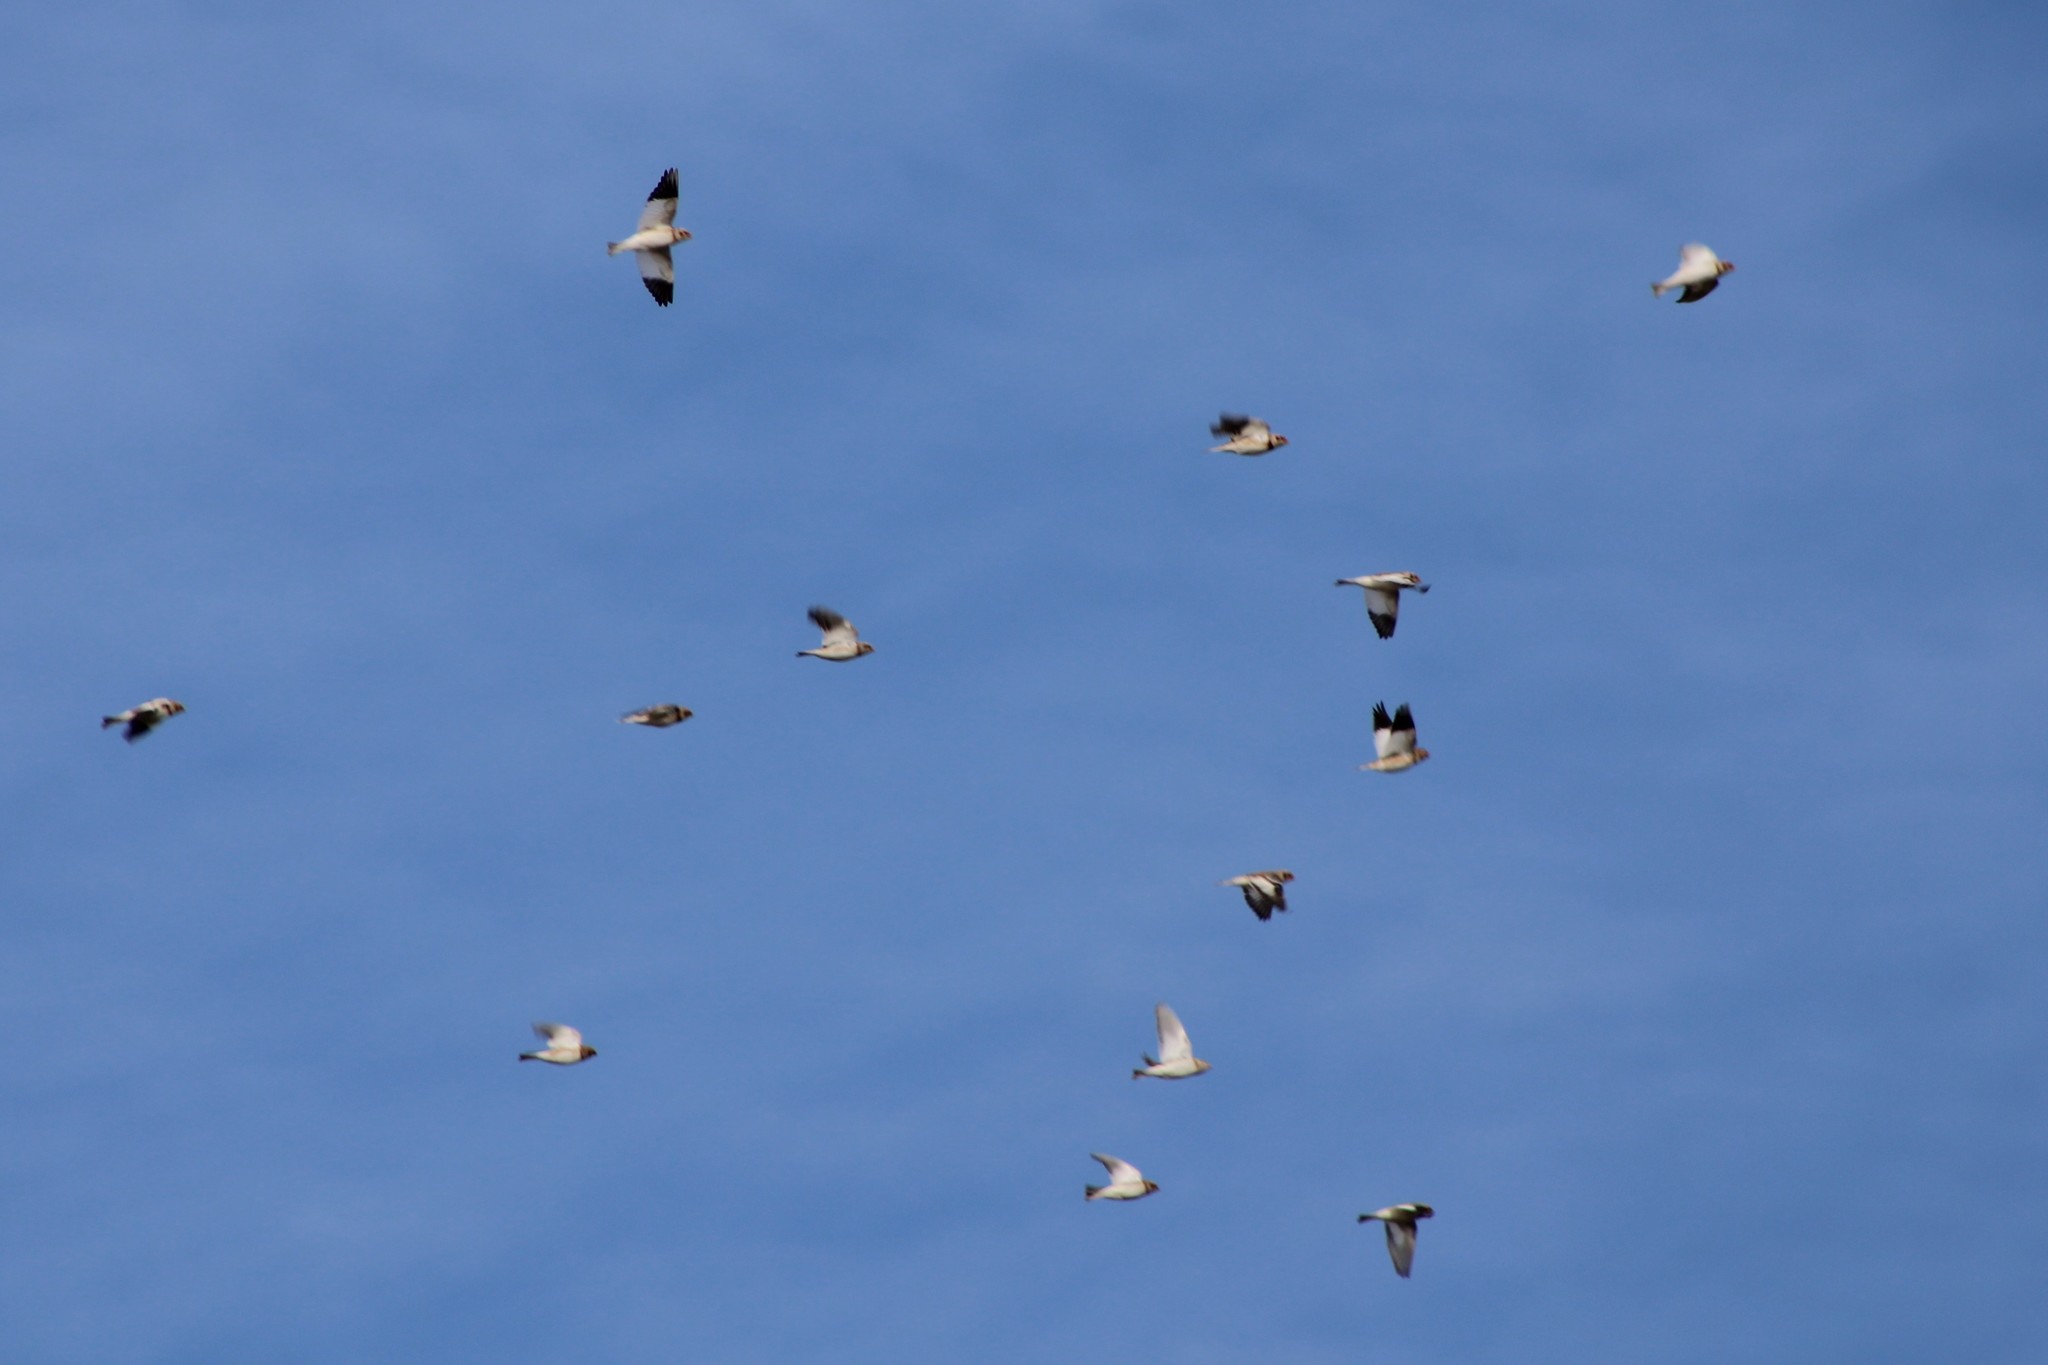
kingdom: Animalia
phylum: Chordata
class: Aves
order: Passeriformes
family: Calcariidae
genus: Plectrophenax
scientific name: Plectrophenax nivalis
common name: Snow bunting
